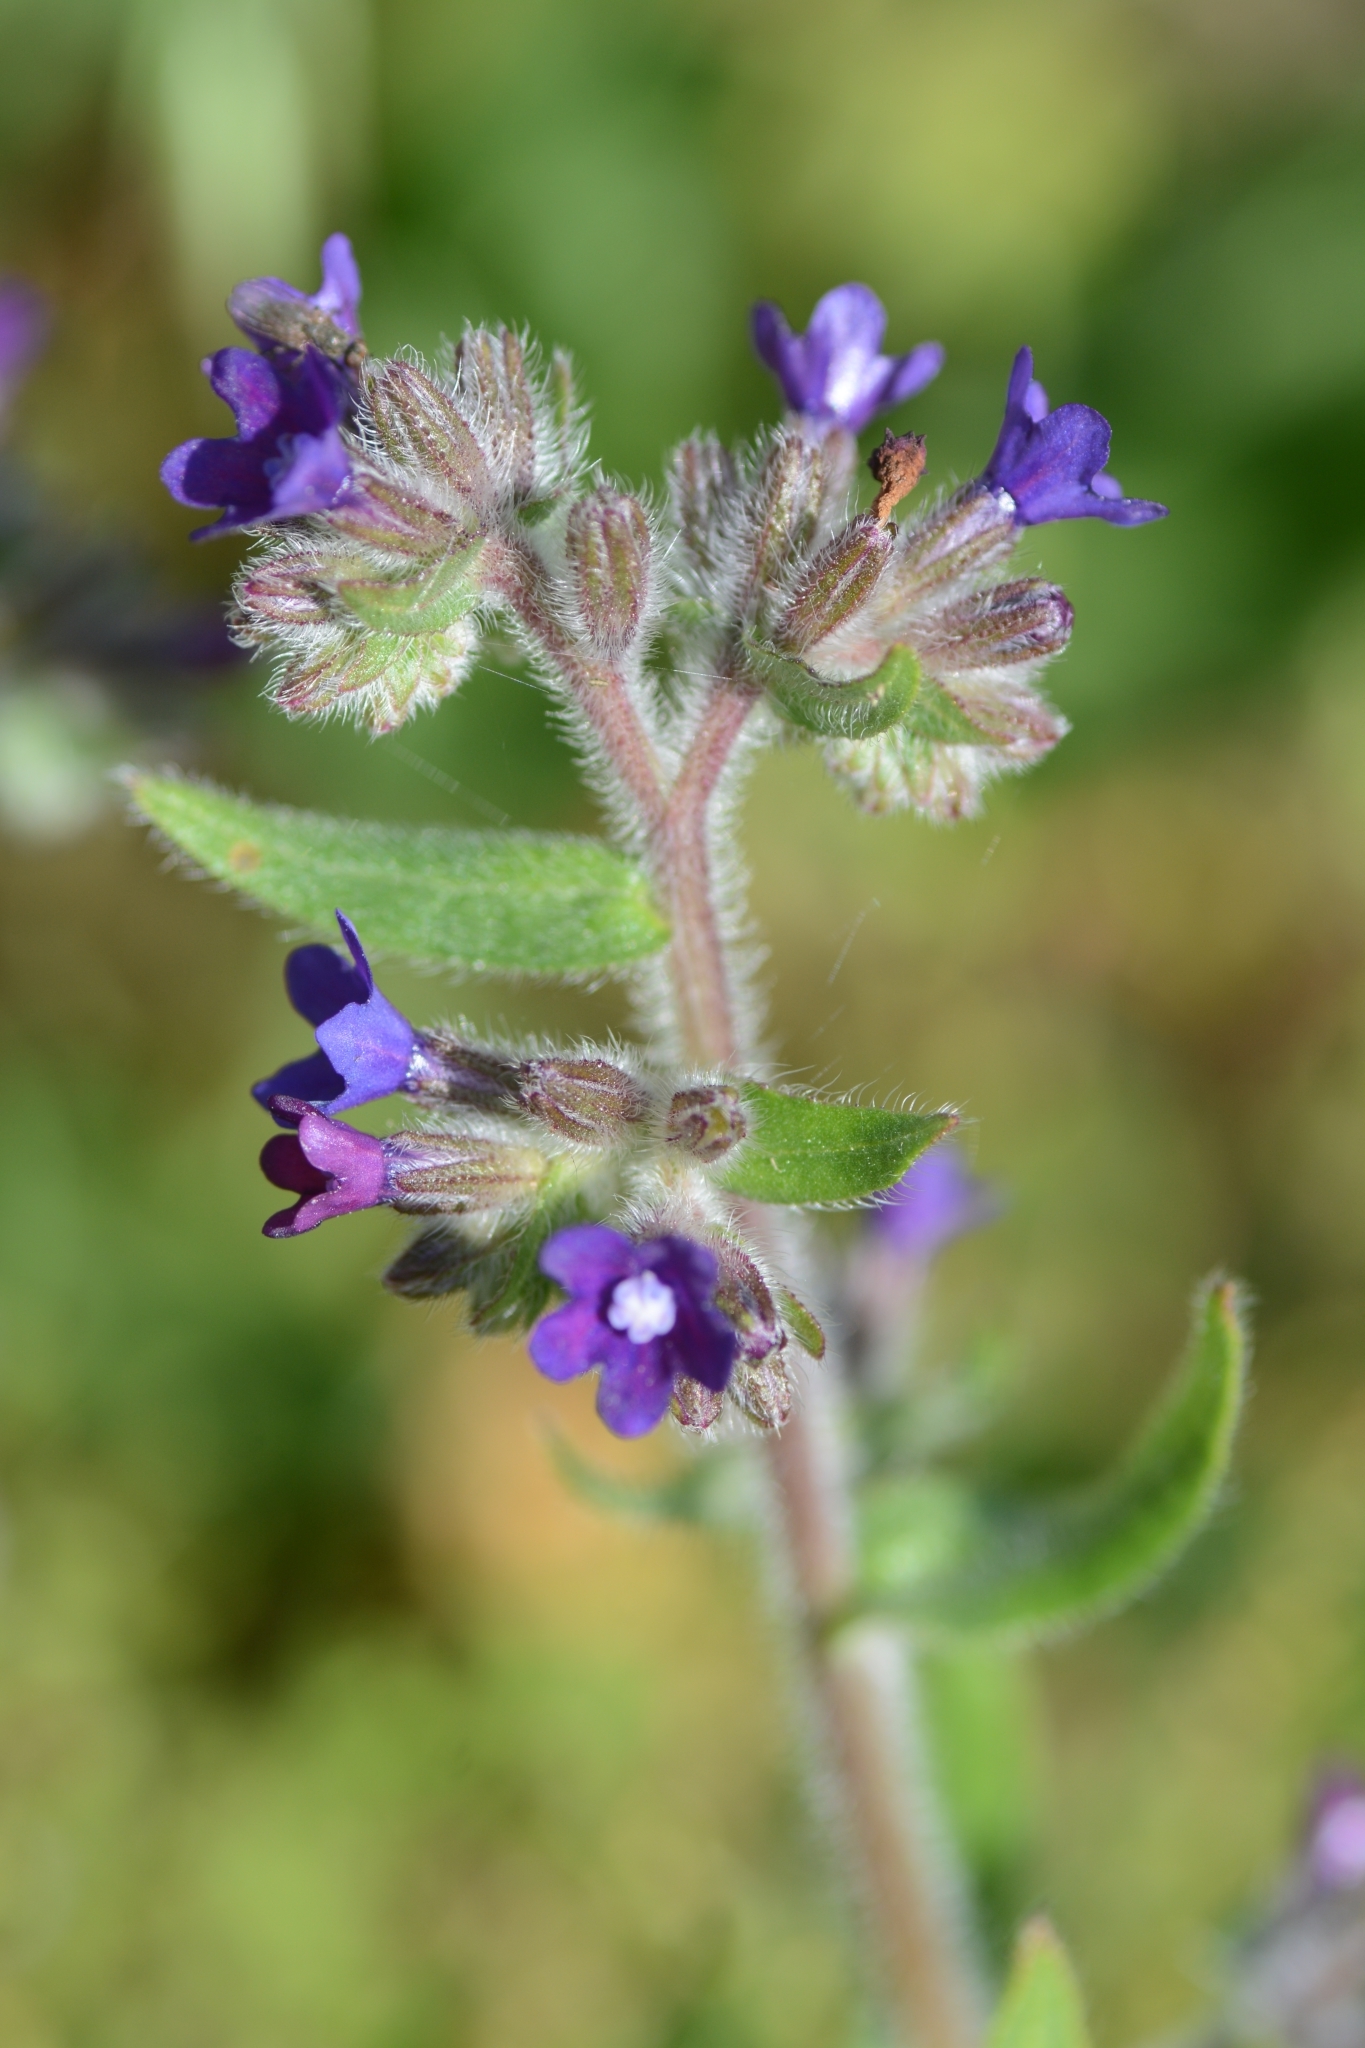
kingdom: Plantae
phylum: Tracheophyta
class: Magnoliopsida
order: Boraginales
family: Boraginaceae
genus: Anchusa
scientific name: Anchusa officinalis
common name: Alkanet
